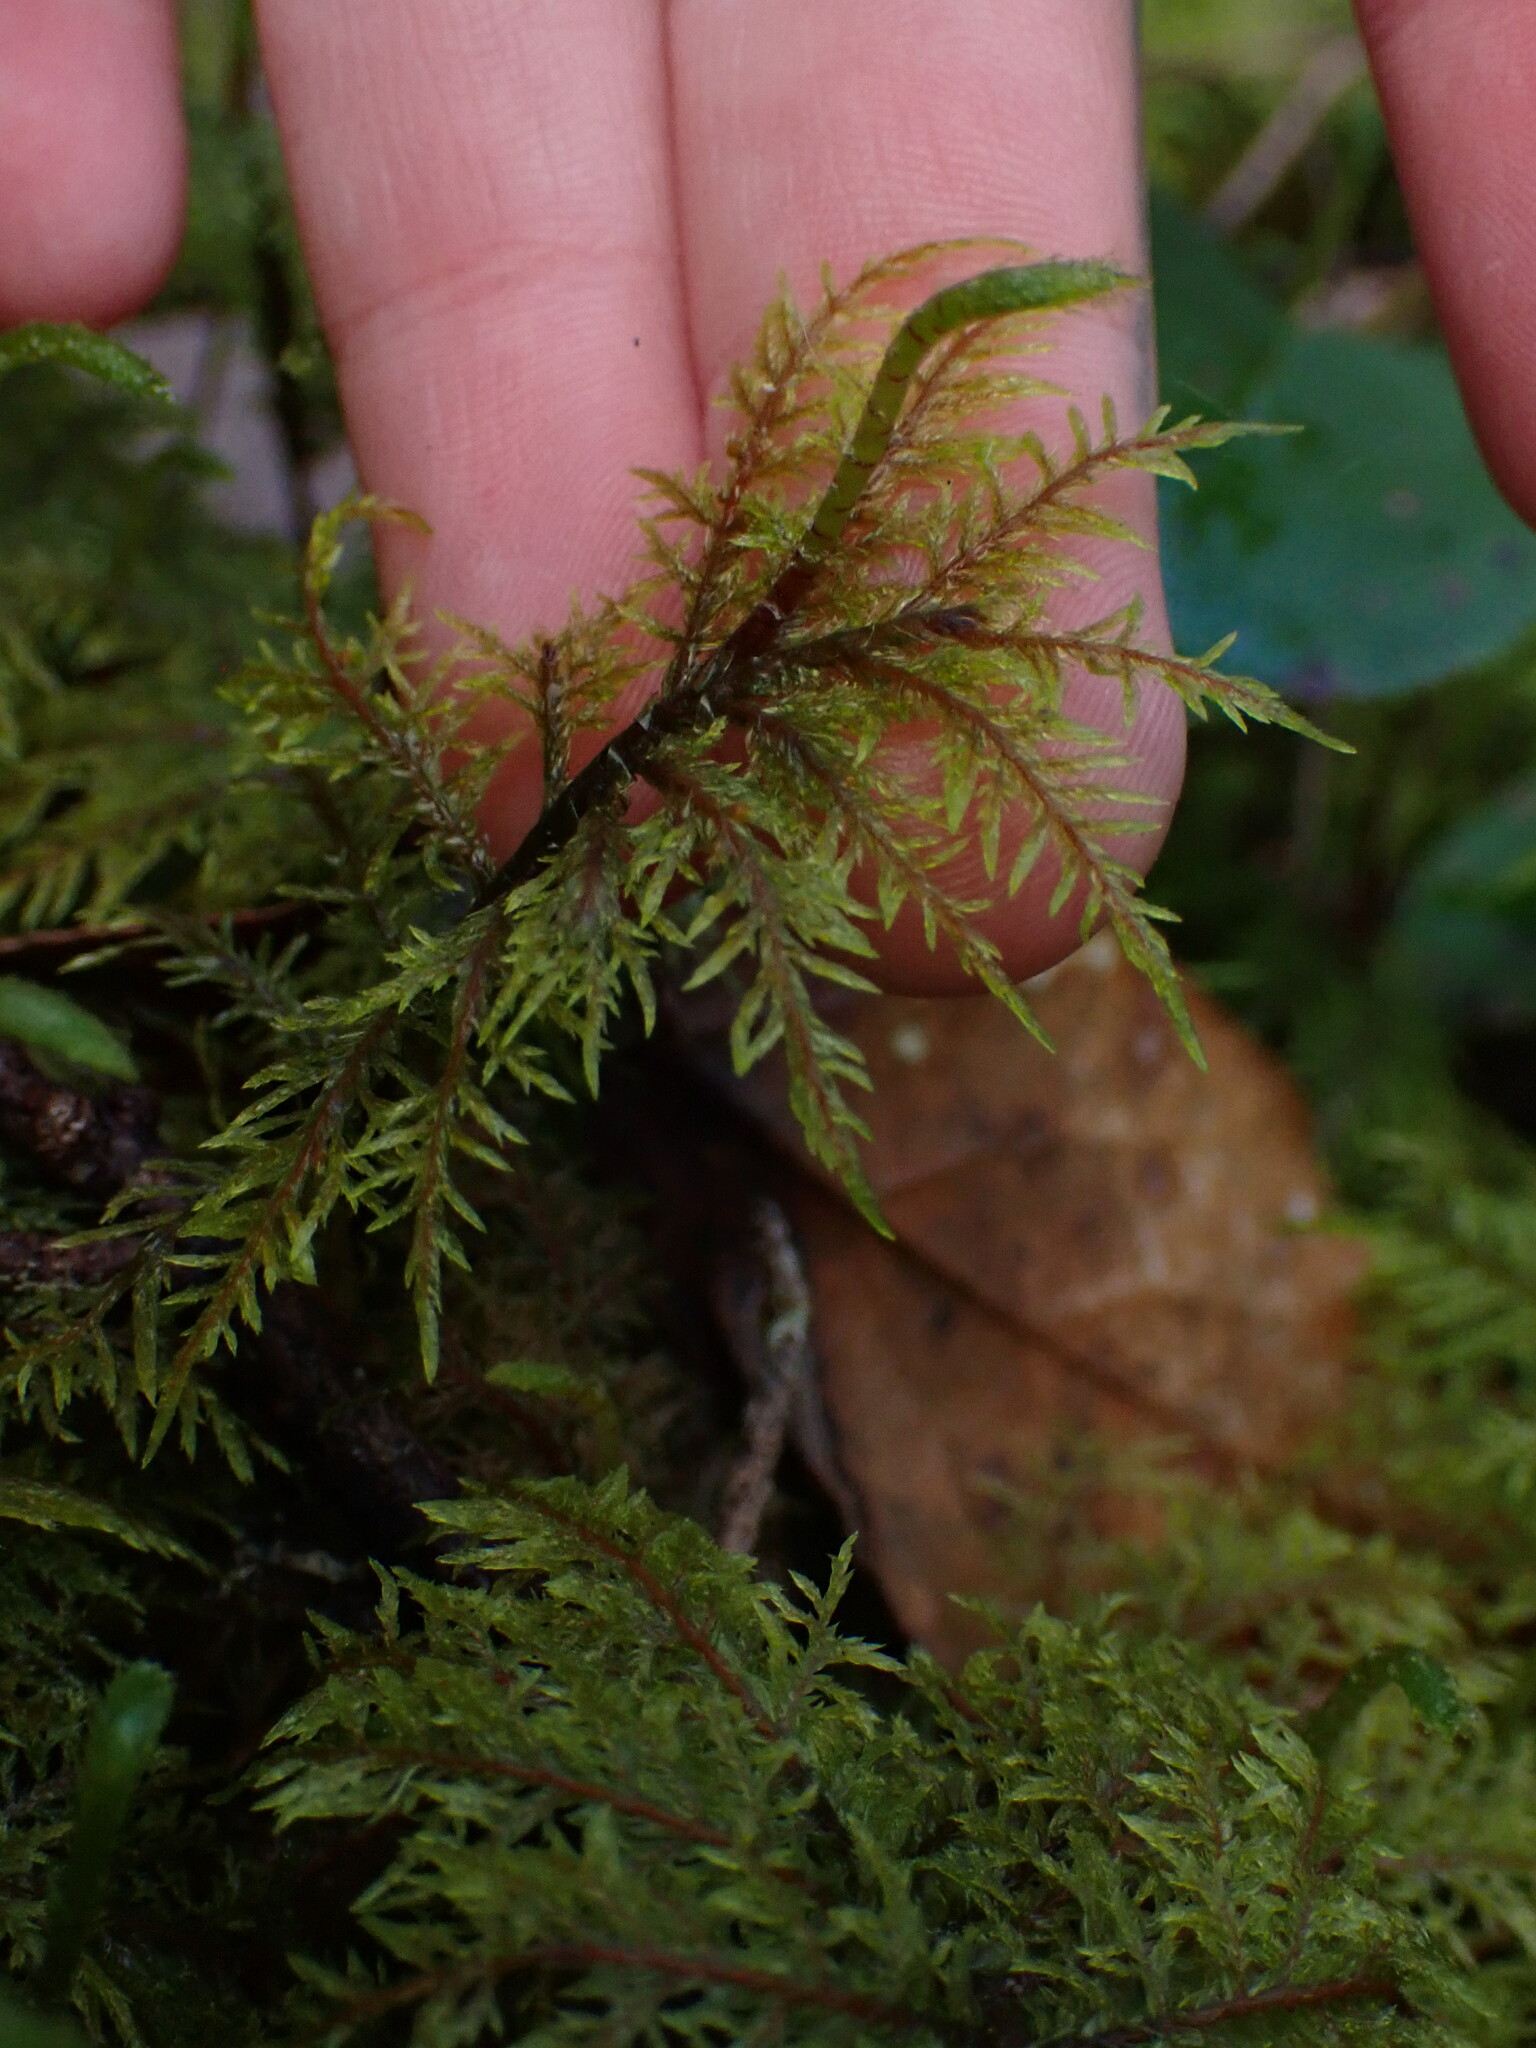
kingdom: Plantae
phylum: Bryophyta
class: Bryopsida
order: Hypnales
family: Hylocomiaceae
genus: Hylocomium
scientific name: Hylocomium splendens
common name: Stairstep moss
